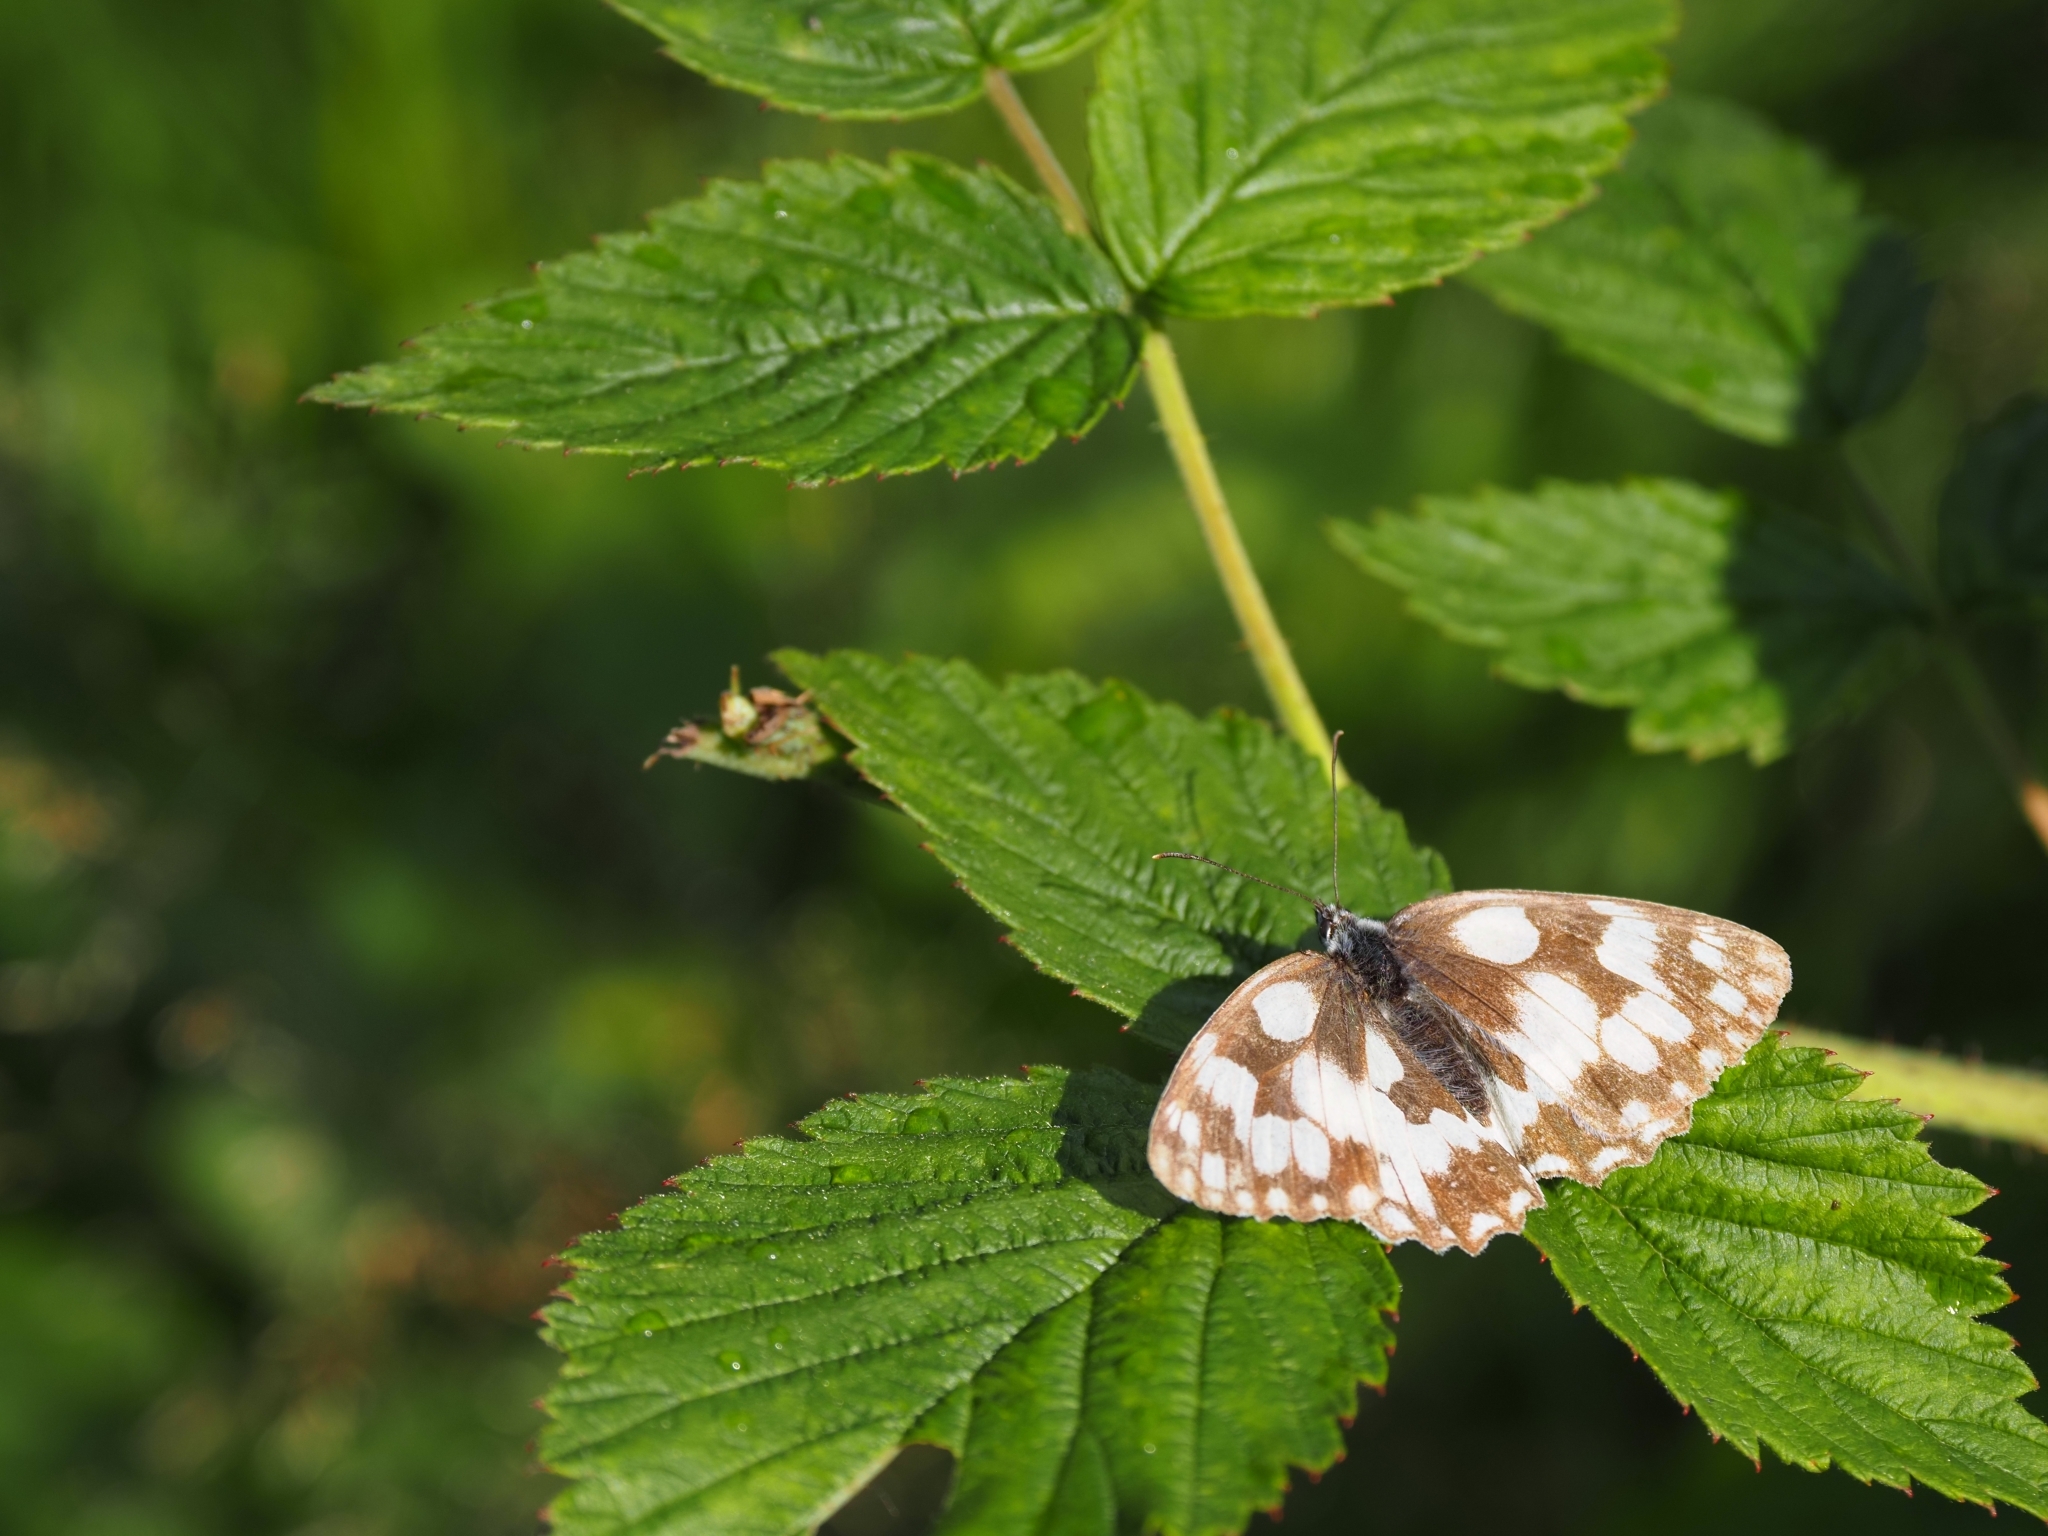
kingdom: Animalia
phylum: Arthropoda
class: Insecta
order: Lepidoptera
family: Nymphalidae
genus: Melanargia
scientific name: Melanargia galathea
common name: Marbled white
